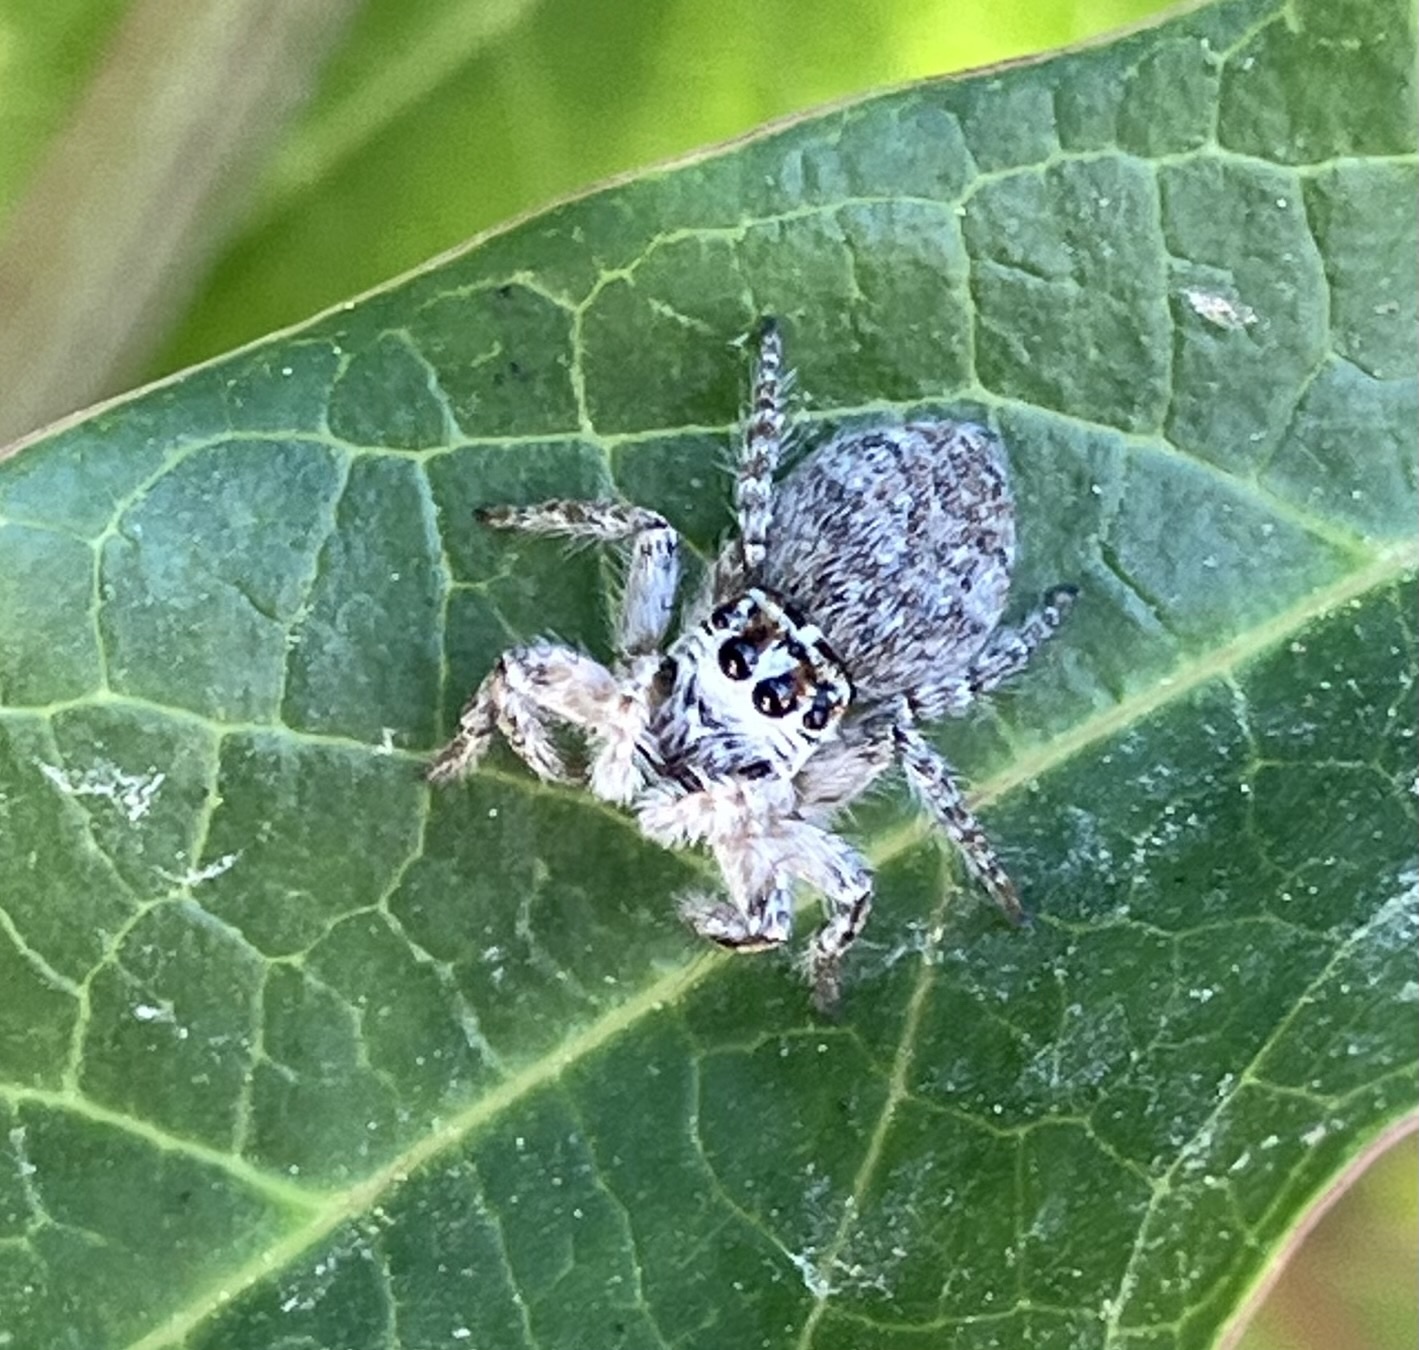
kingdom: Animalia
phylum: Arthropoda
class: Arachnida
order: Araneae
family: Salticidae
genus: Philaeus
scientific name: Philaeus chrysops
